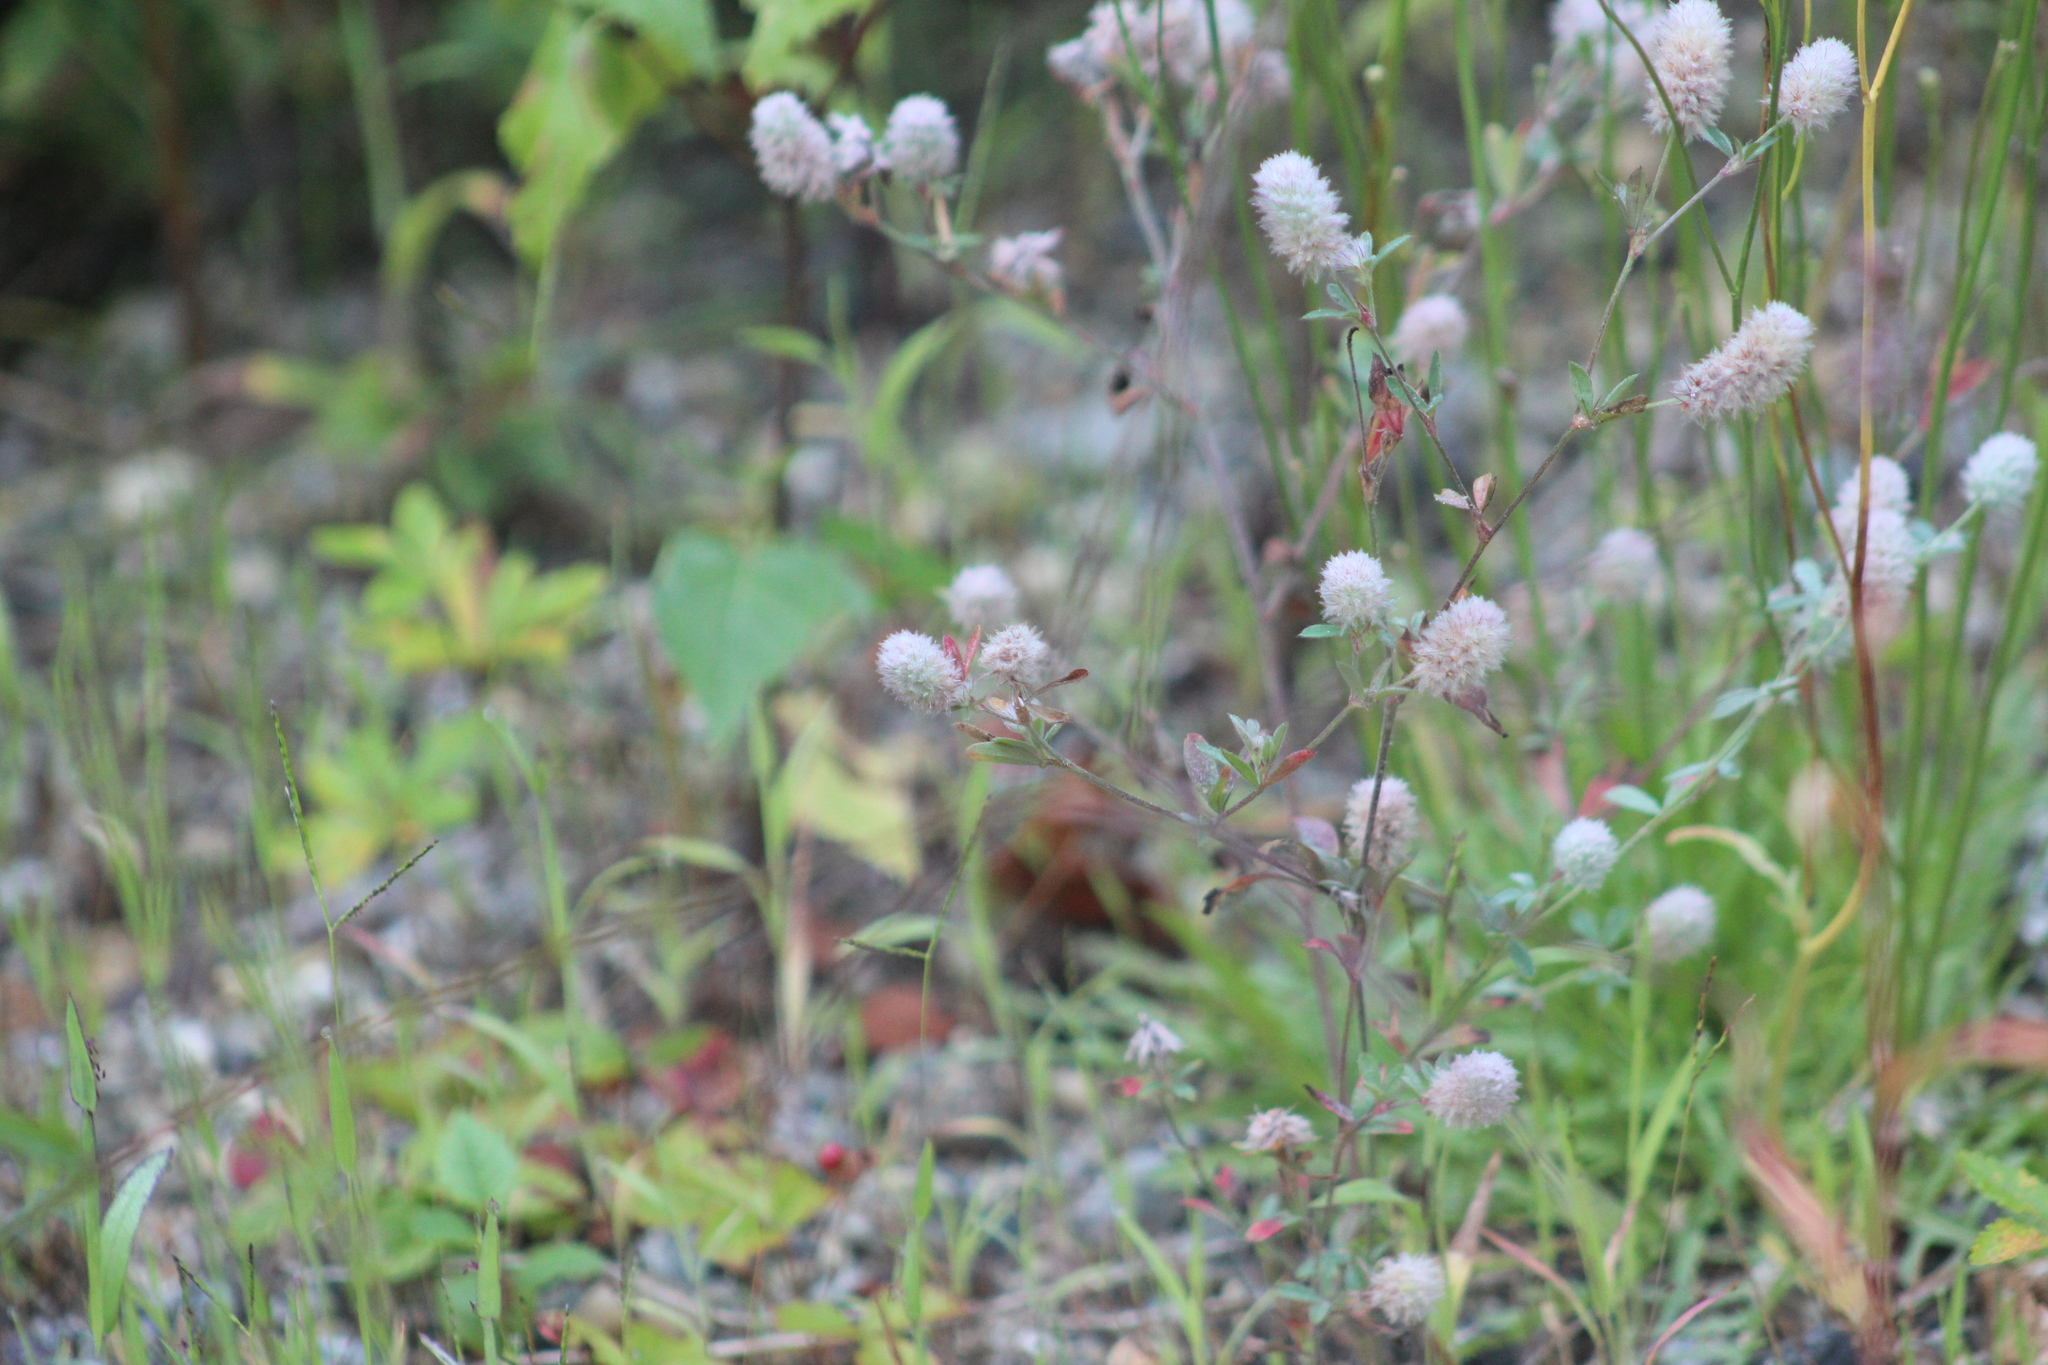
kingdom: Plantae
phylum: Tracheophyta
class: Magnoliopsida
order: Fabales
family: Fabaceae
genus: Trifolium
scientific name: Trifolium arvense
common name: Hare's-foot clover
